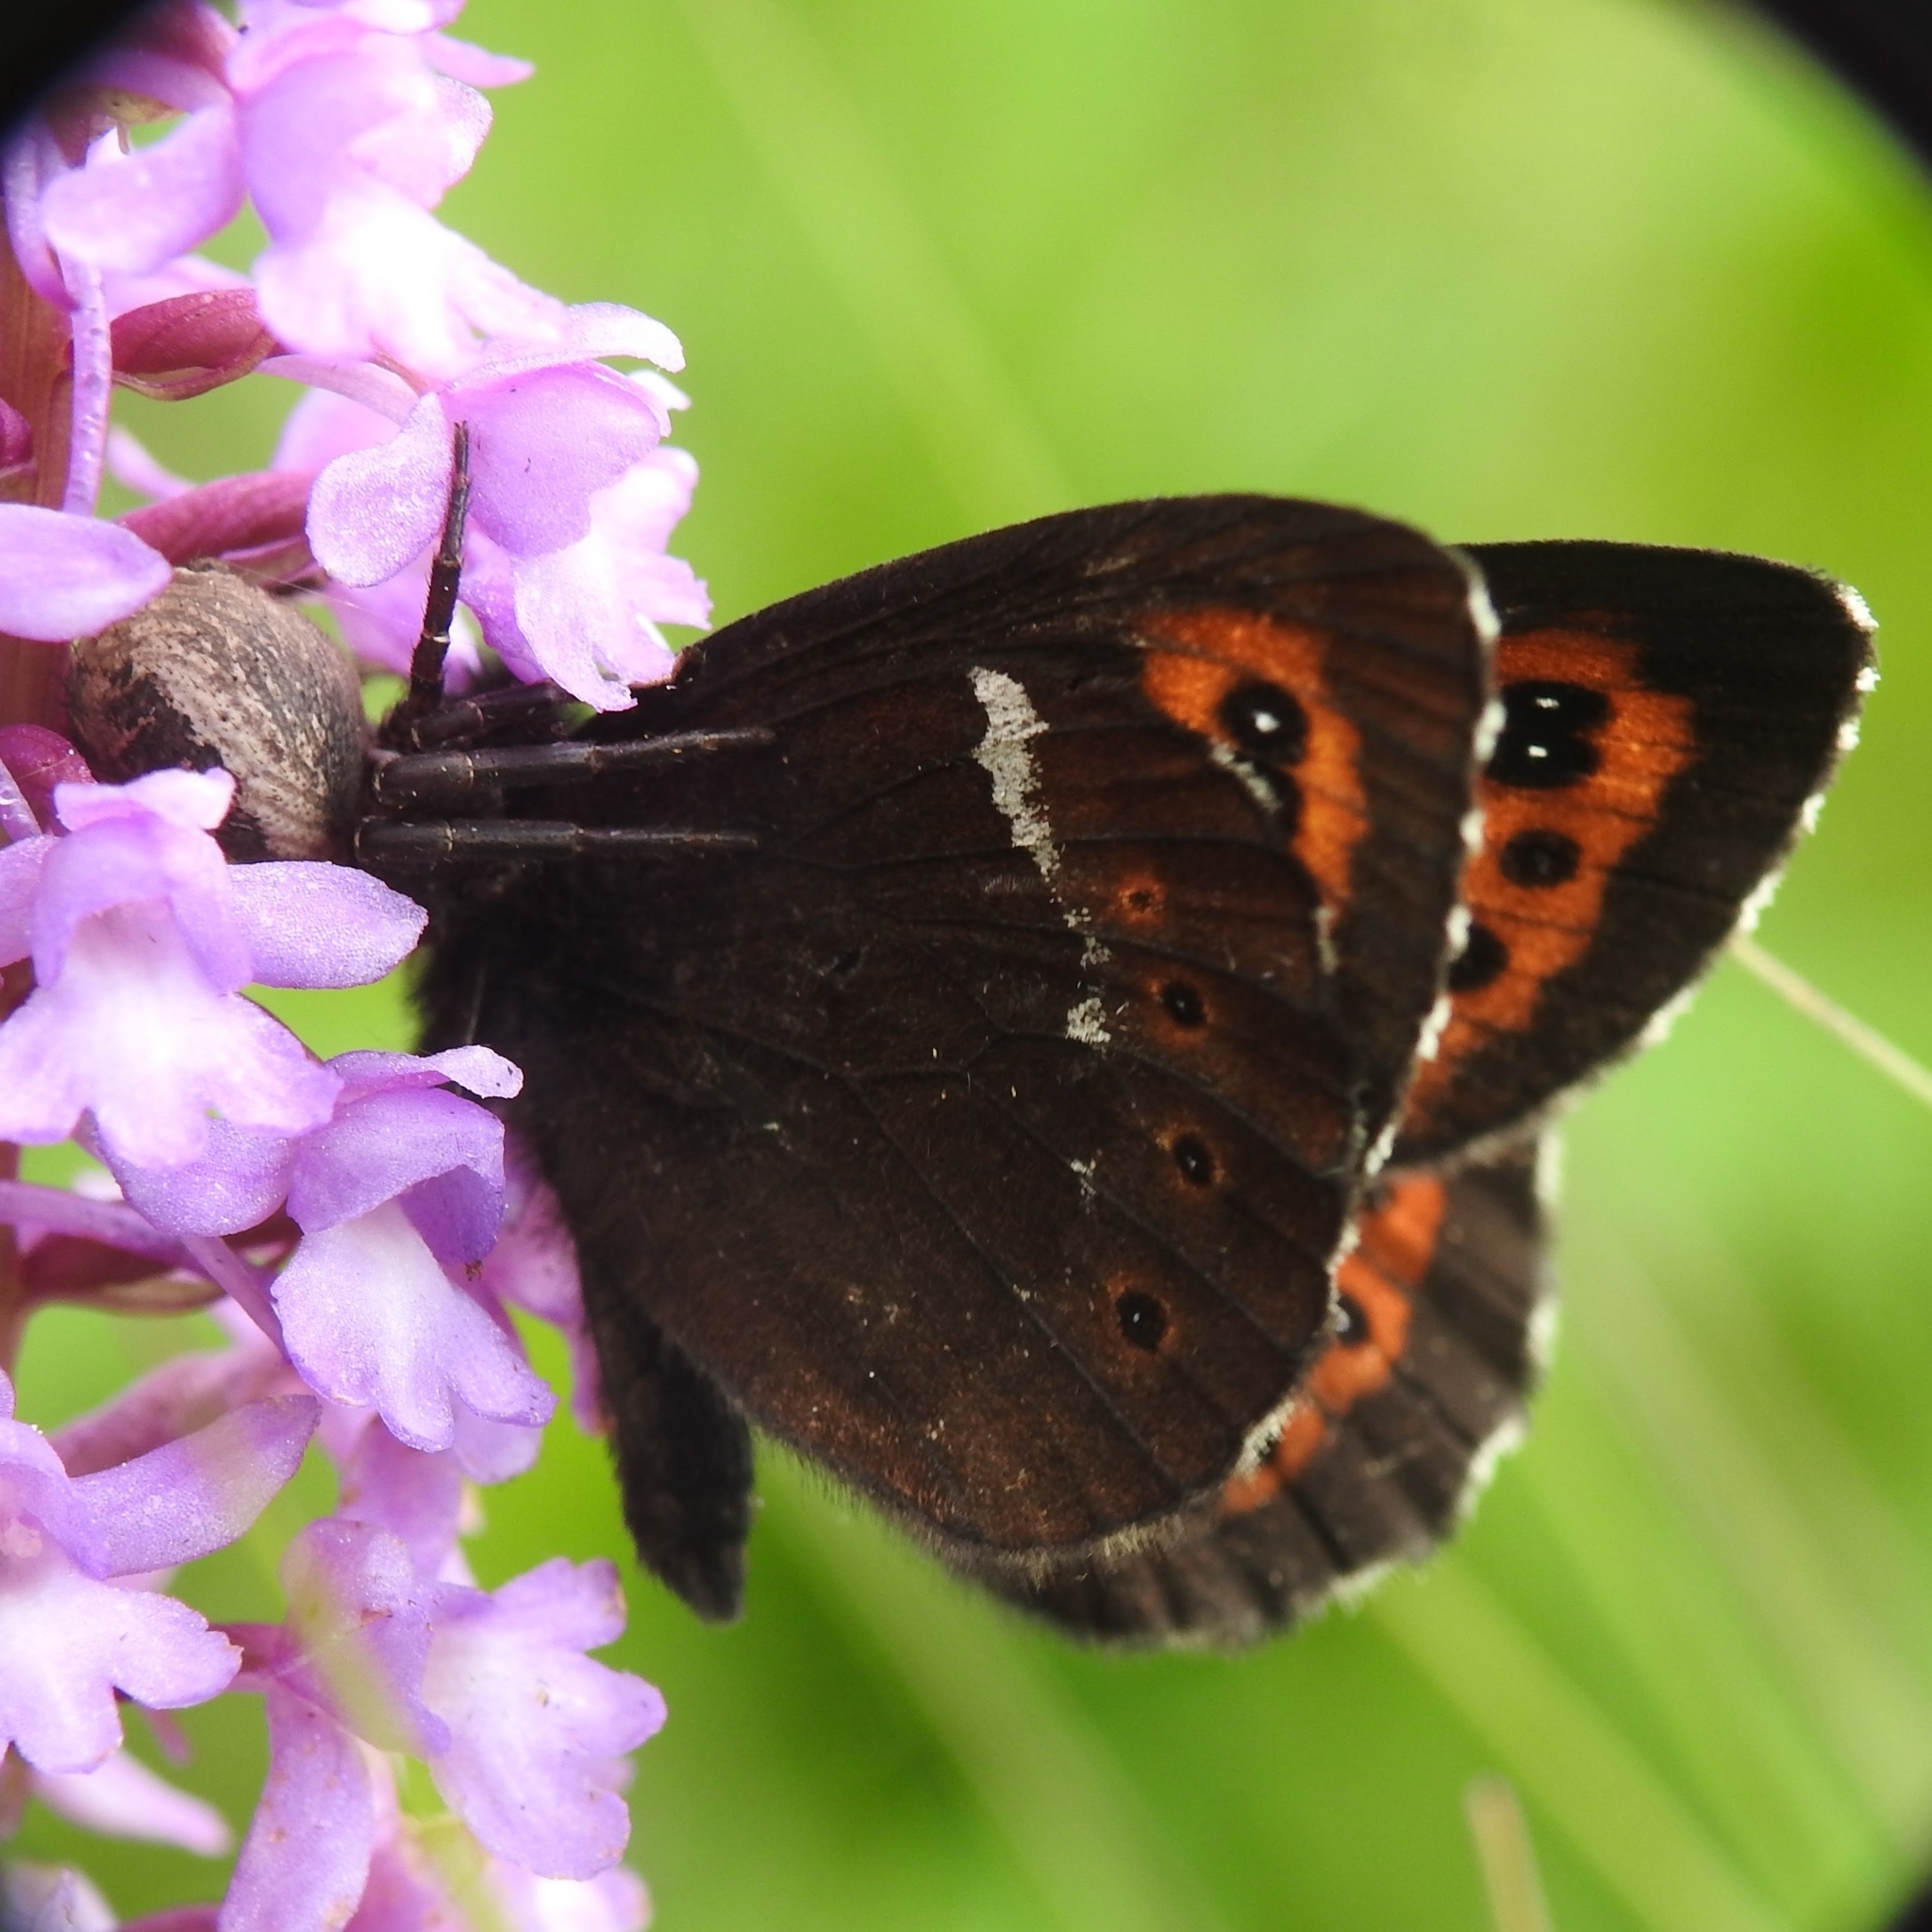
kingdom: Animalia
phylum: Arthropoda
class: Insecta
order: Lepidoptera
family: Nymphalidae
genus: Erebia
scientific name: Erebia ligea
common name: Arran brown
